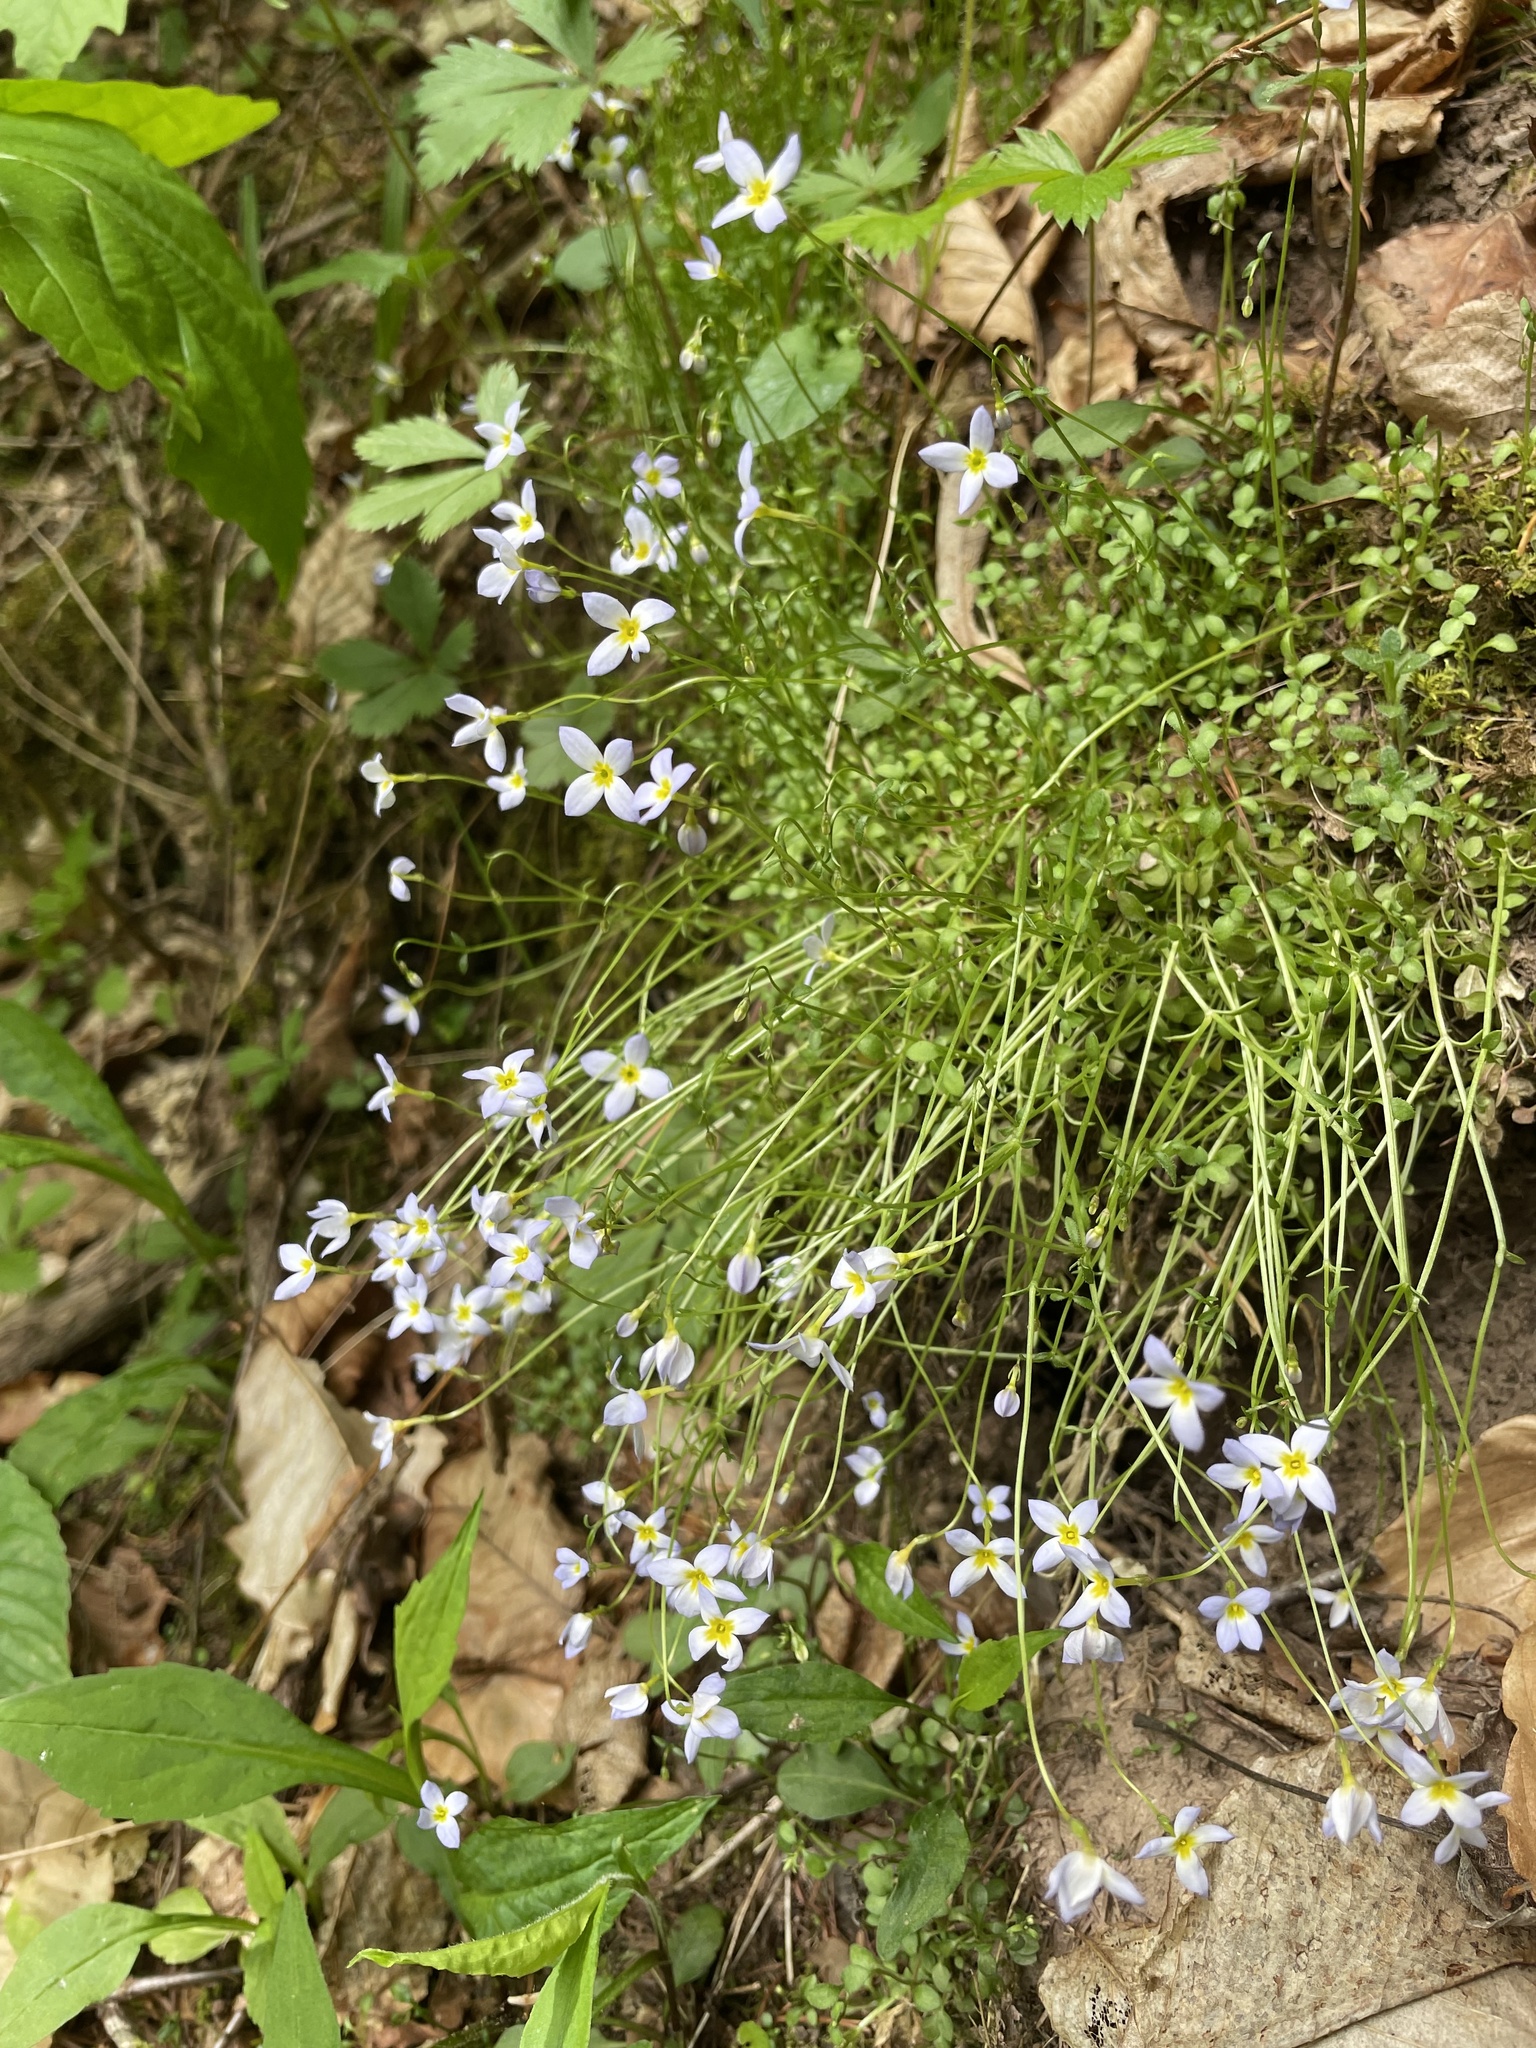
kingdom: Plantae
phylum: Tracheophyta
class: Magnoliopsida
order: Gentianales
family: Rubiaceae
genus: Houstonia
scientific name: Houstonia caerulea
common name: Bluets
